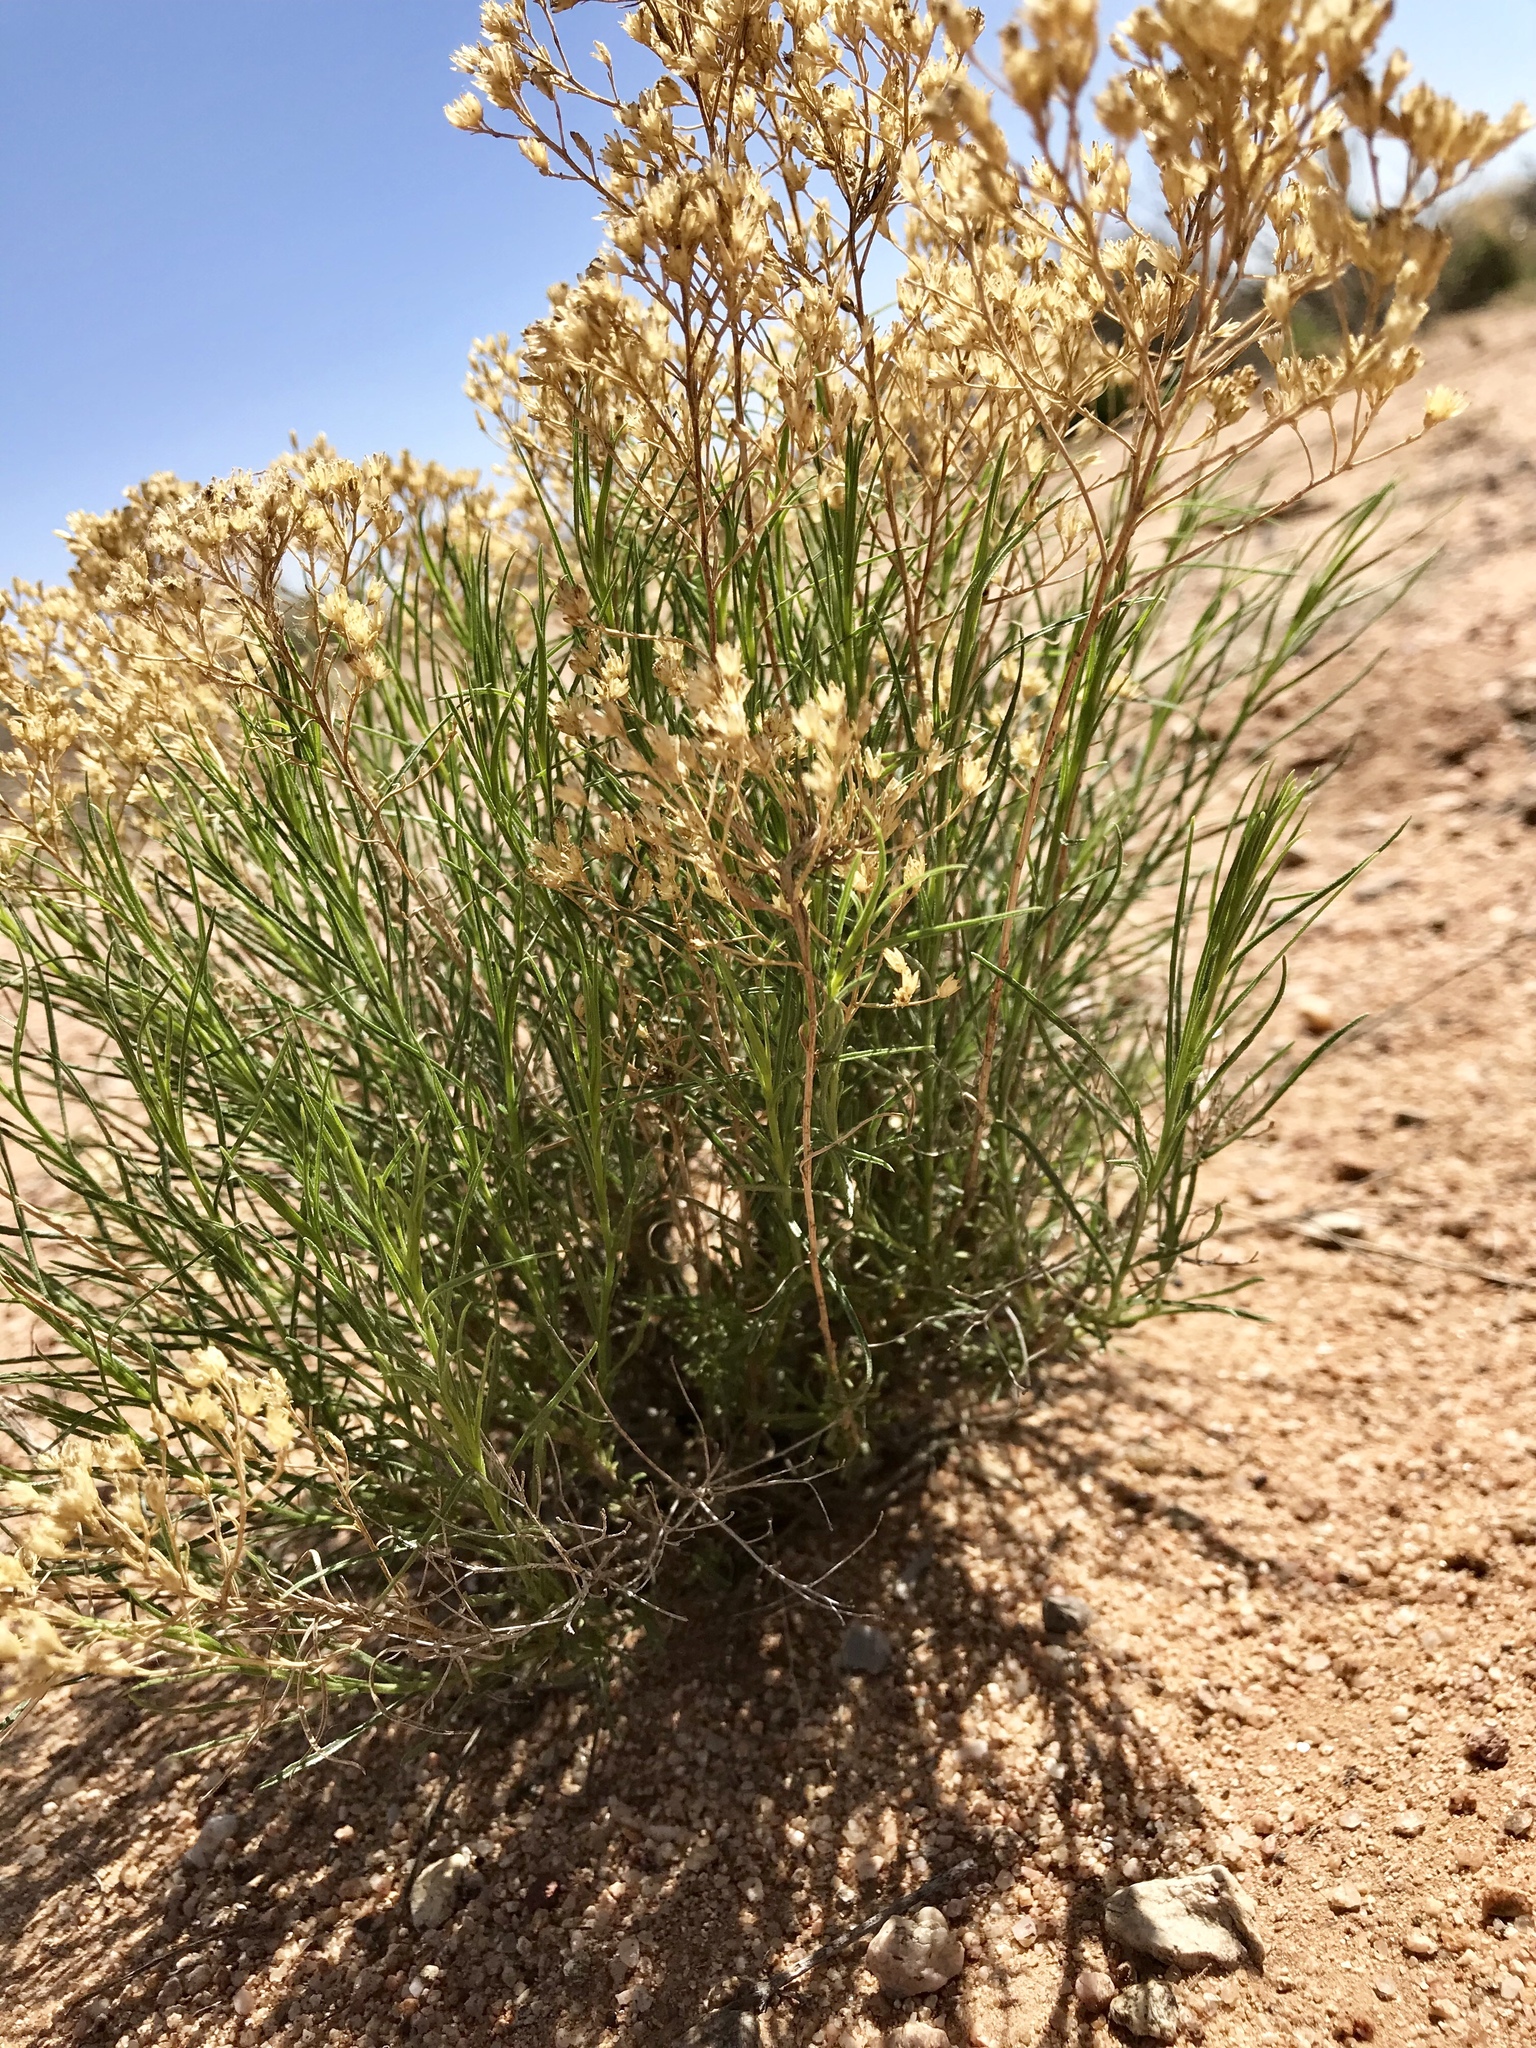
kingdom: Plantae
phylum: Tracheophyta
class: Magnoliopsida
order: Asterales
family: Asteraceae
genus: Gutierrezia
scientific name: Gutierrezia sarothrae
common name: Broom snakeweed
